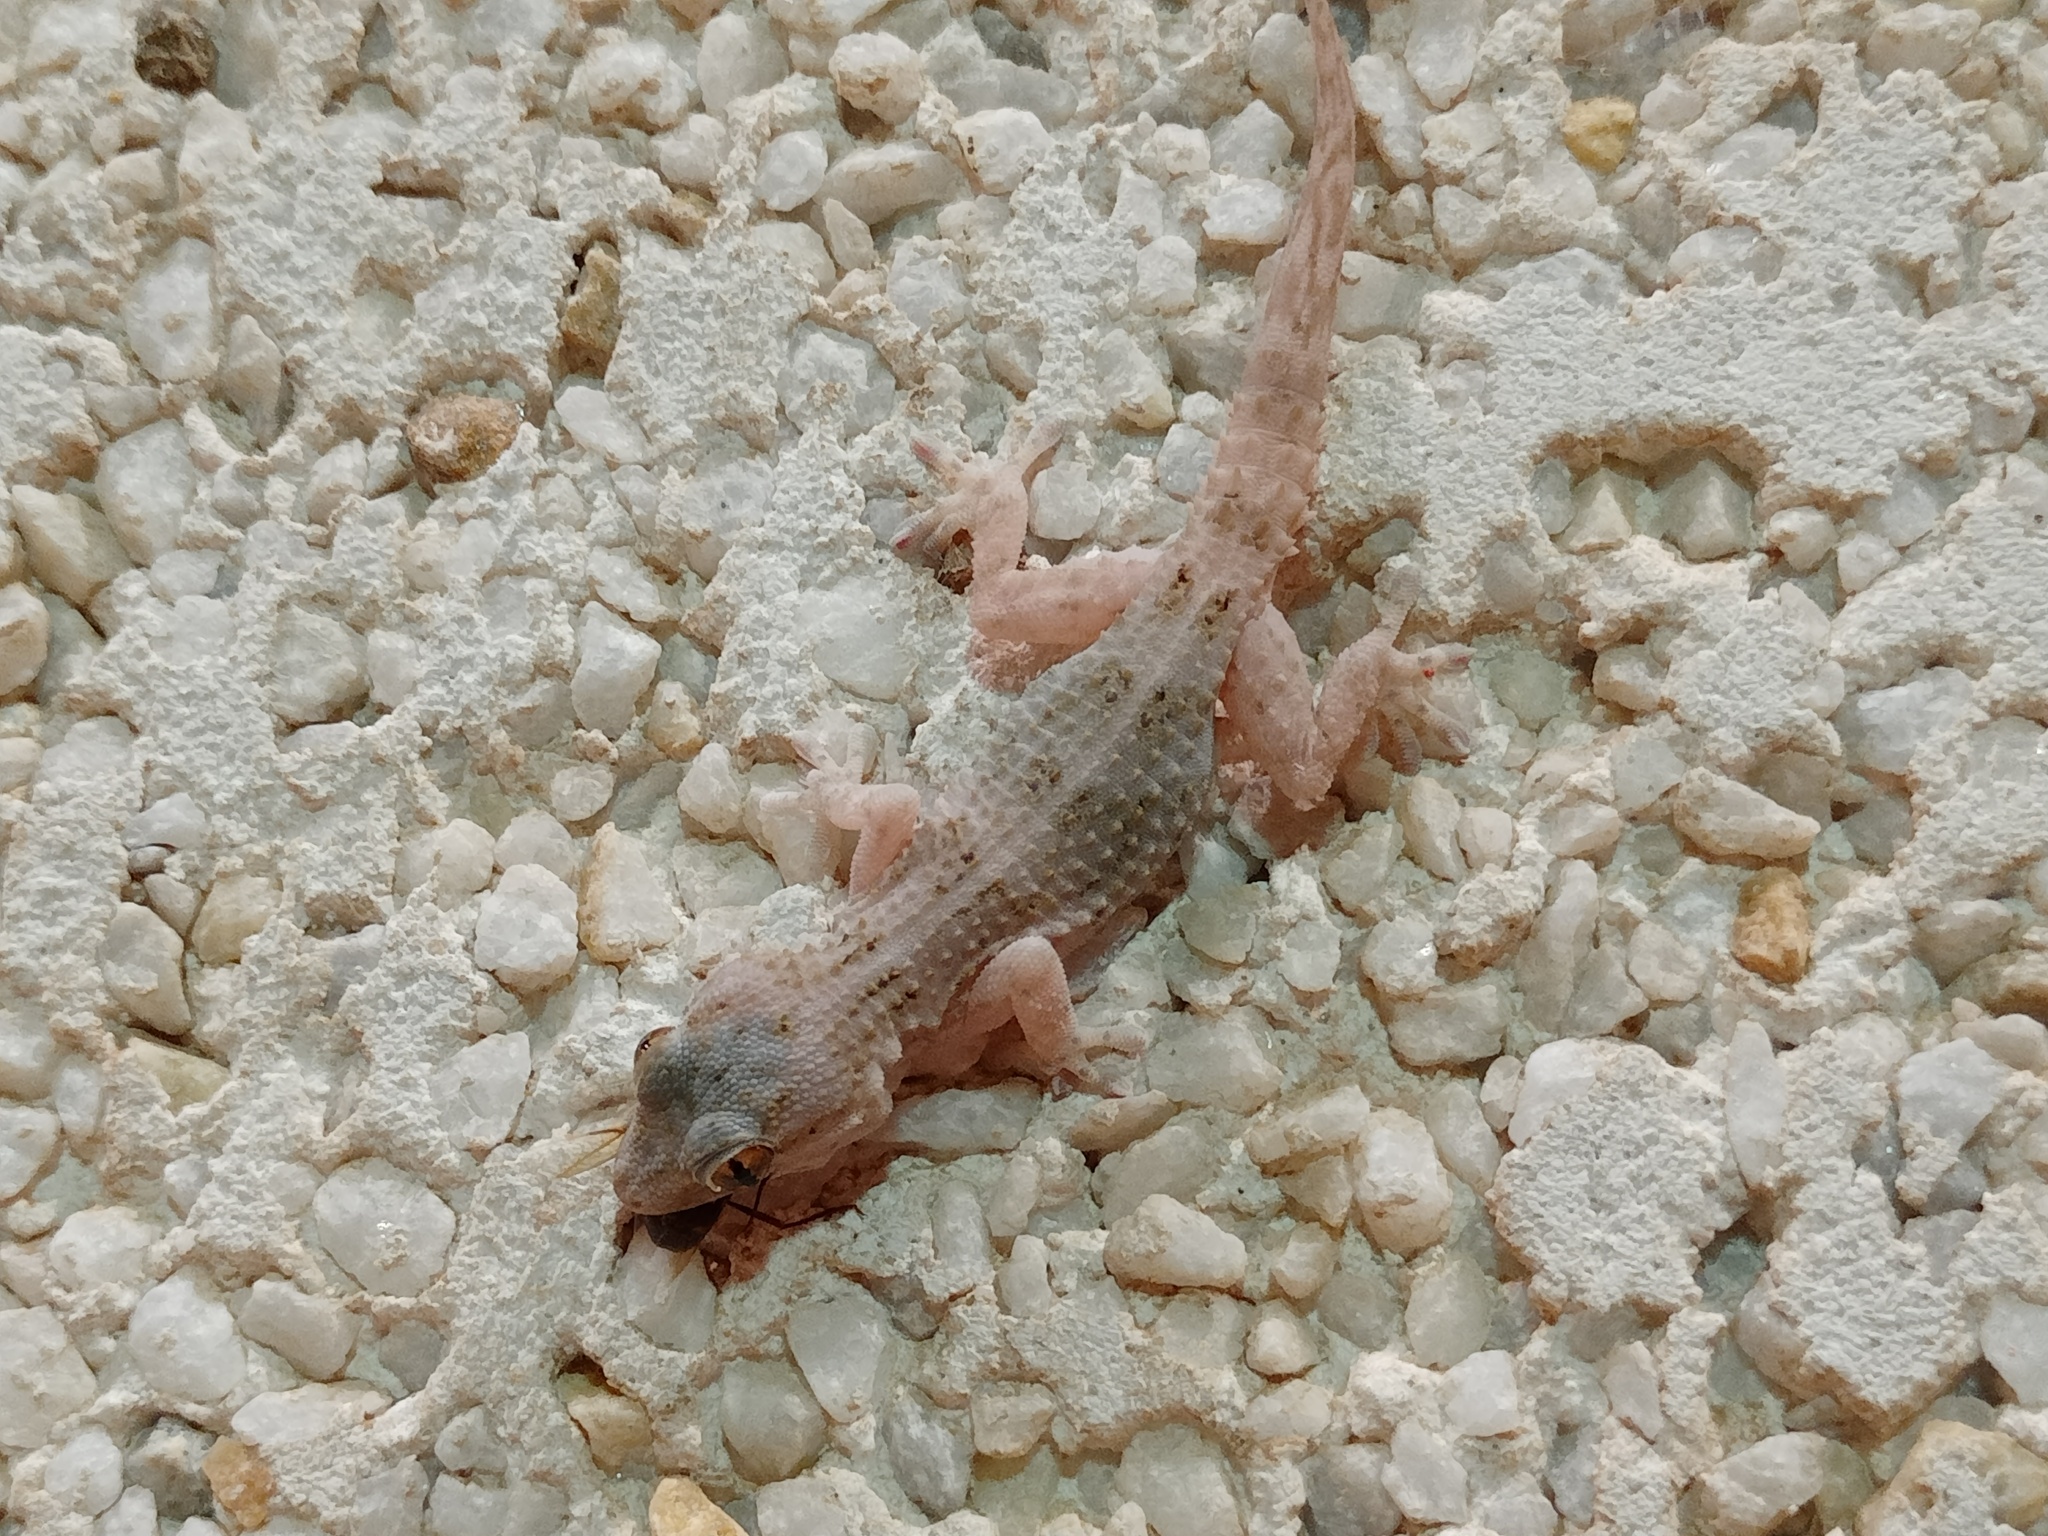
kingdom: Animalia
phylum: Chordata
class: Squamata
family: Phyllodactylidae
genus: Tarentola
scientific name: Tarentola angustimentalis
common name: East canary gecko
